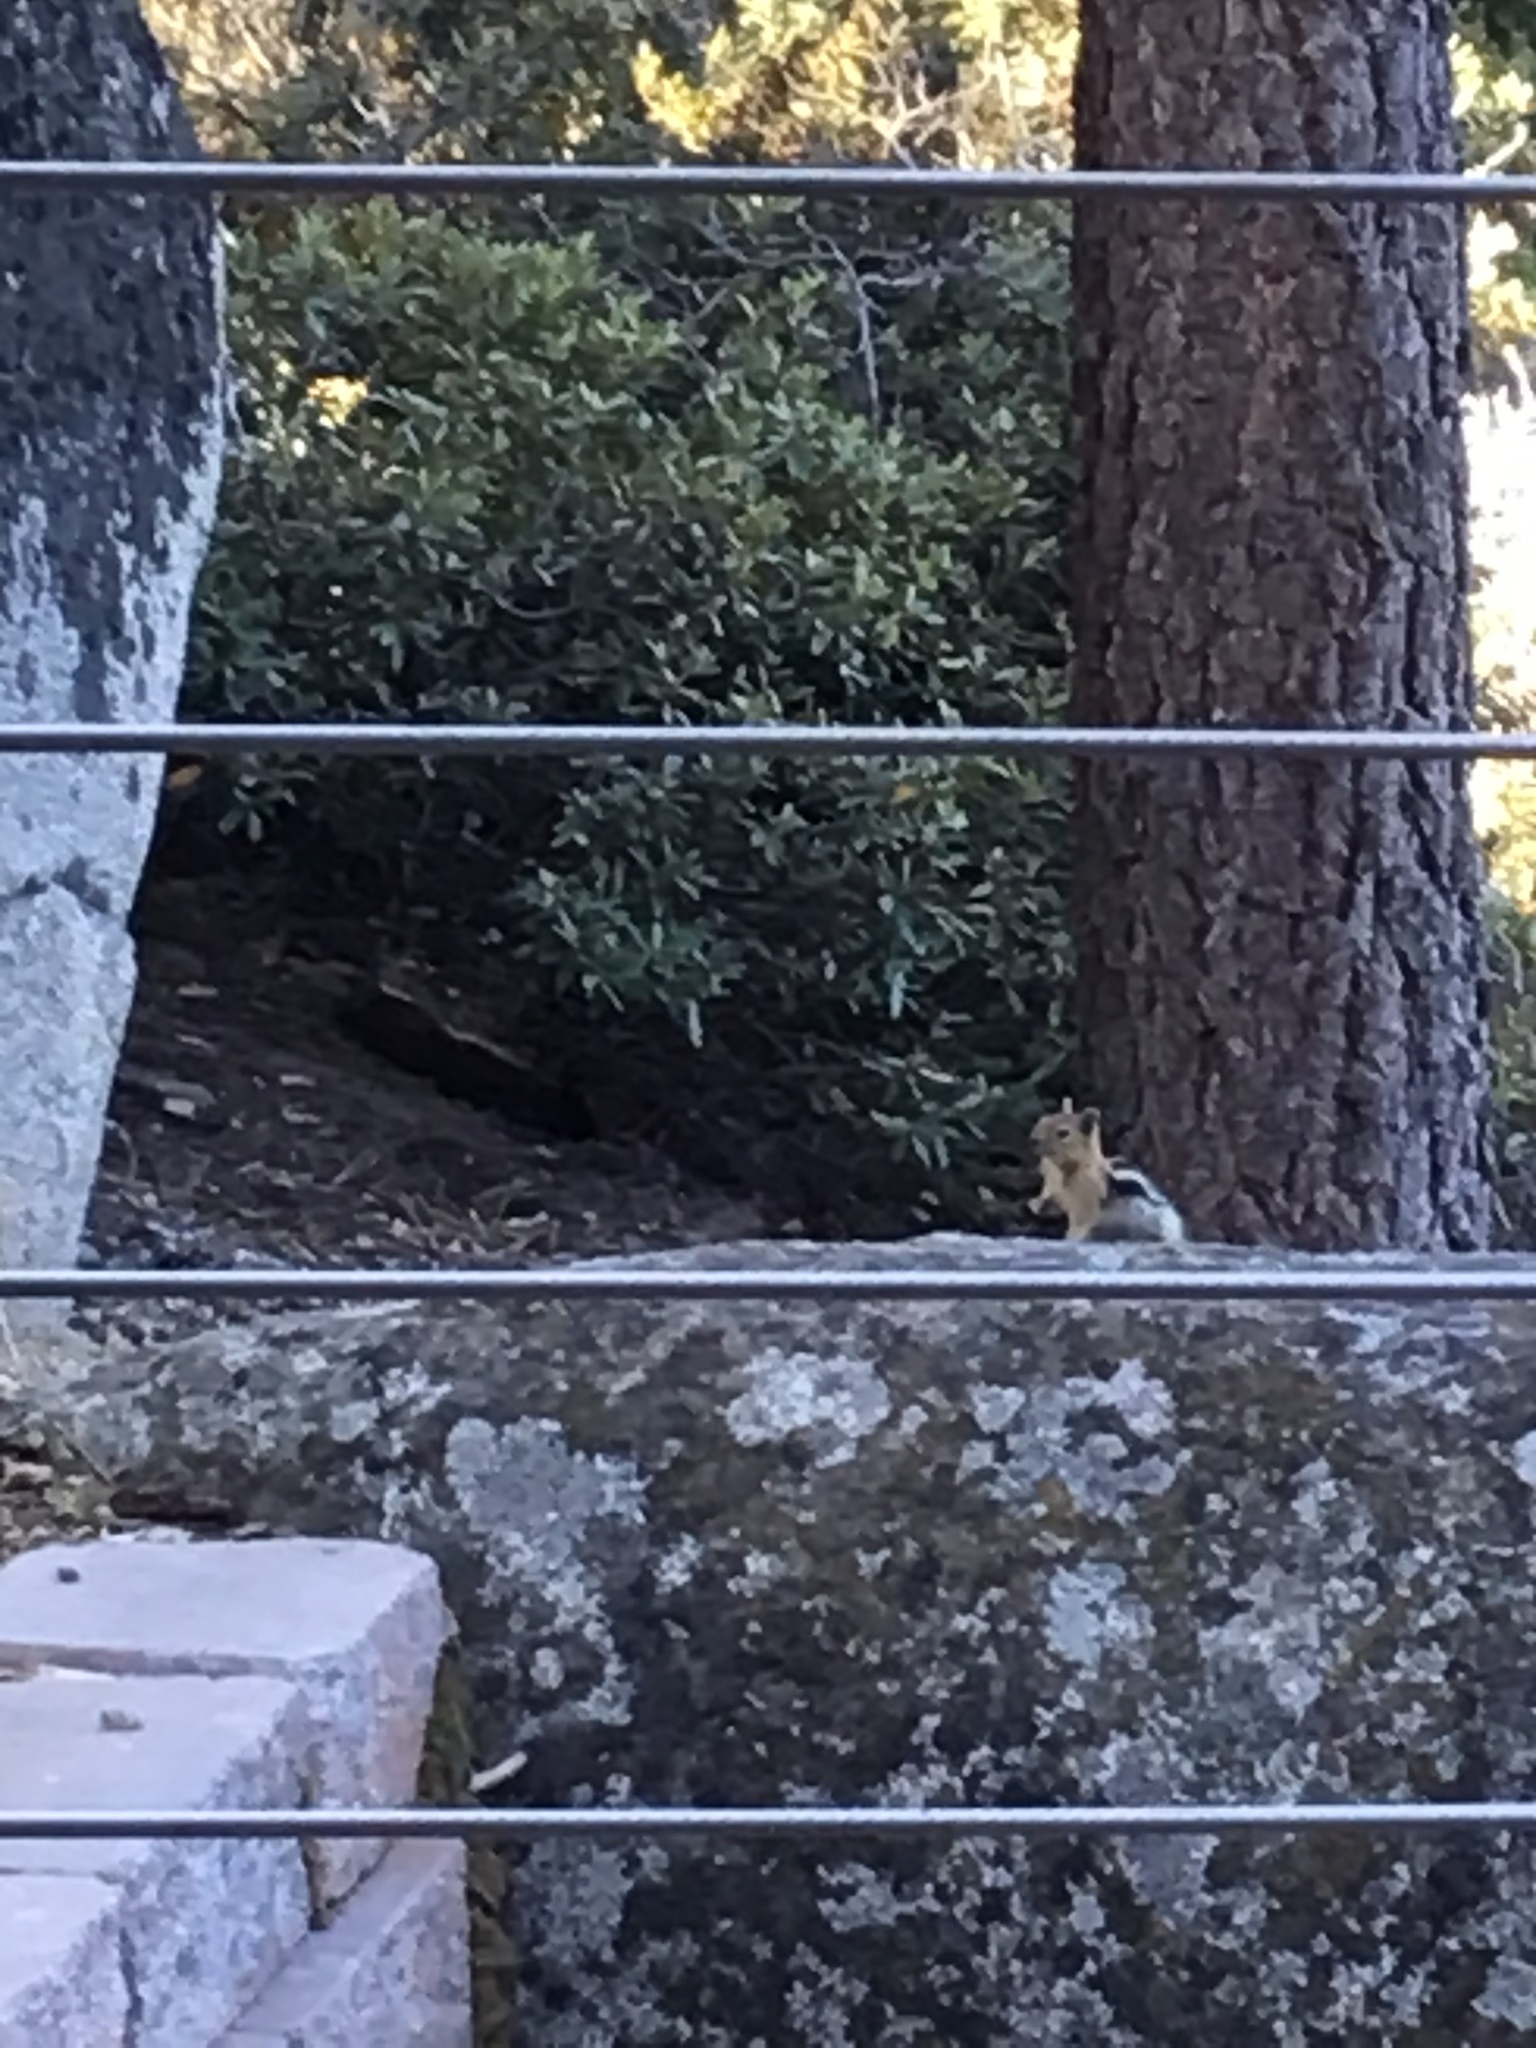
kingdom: Animalia
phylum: Chordata
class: Mammalia
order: Rodentia
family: Sciuridae
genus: Callospermophilus
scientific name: Callospermophilus lateralis
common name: Golden-mantled ground squirrel
